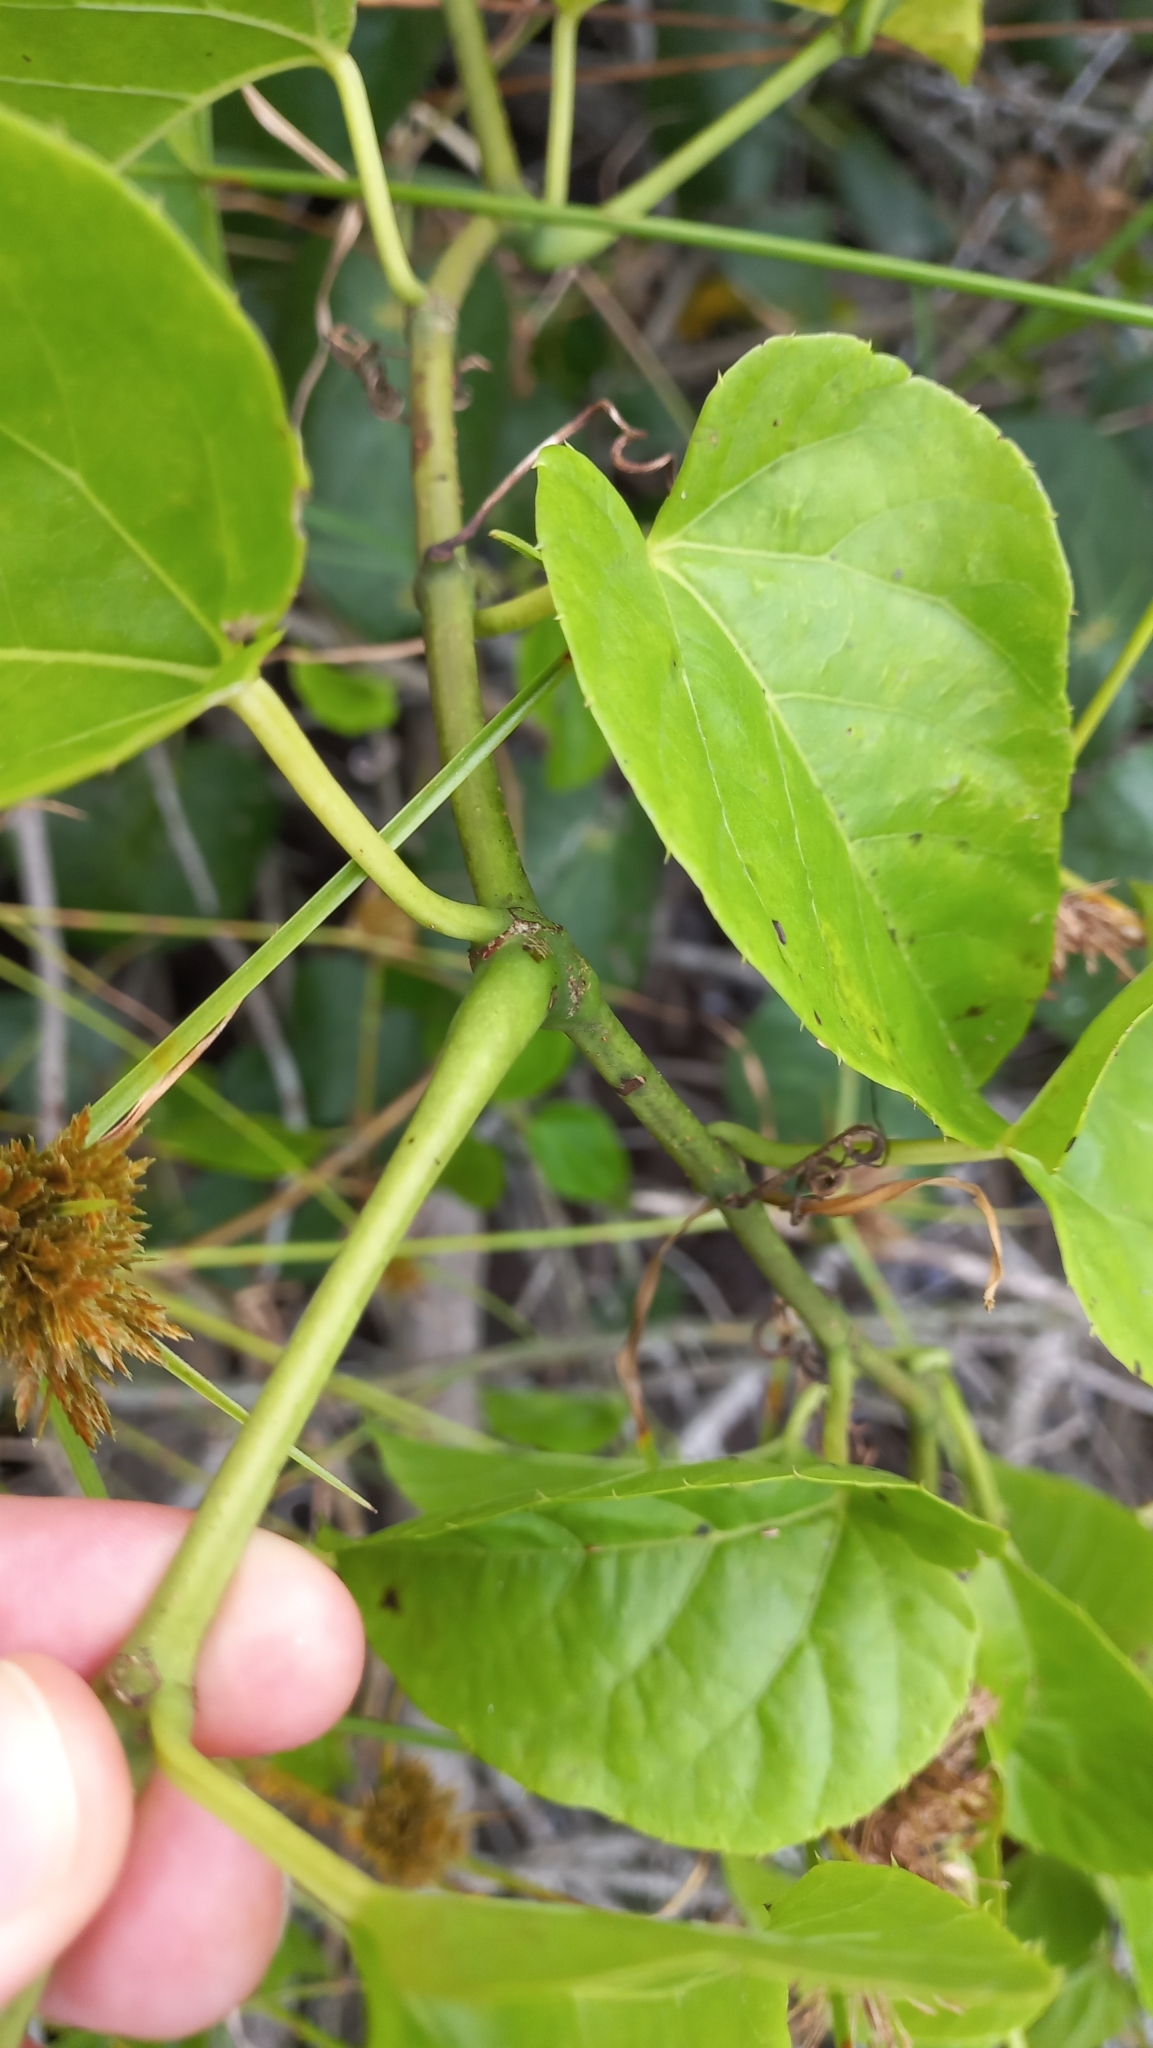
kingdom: Plantae
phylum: Tracheophyta
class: Magnoliopsida
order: Vitales
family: Vitaceae
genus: Cissus
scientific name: Cissus verticillata
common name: Princess vine
